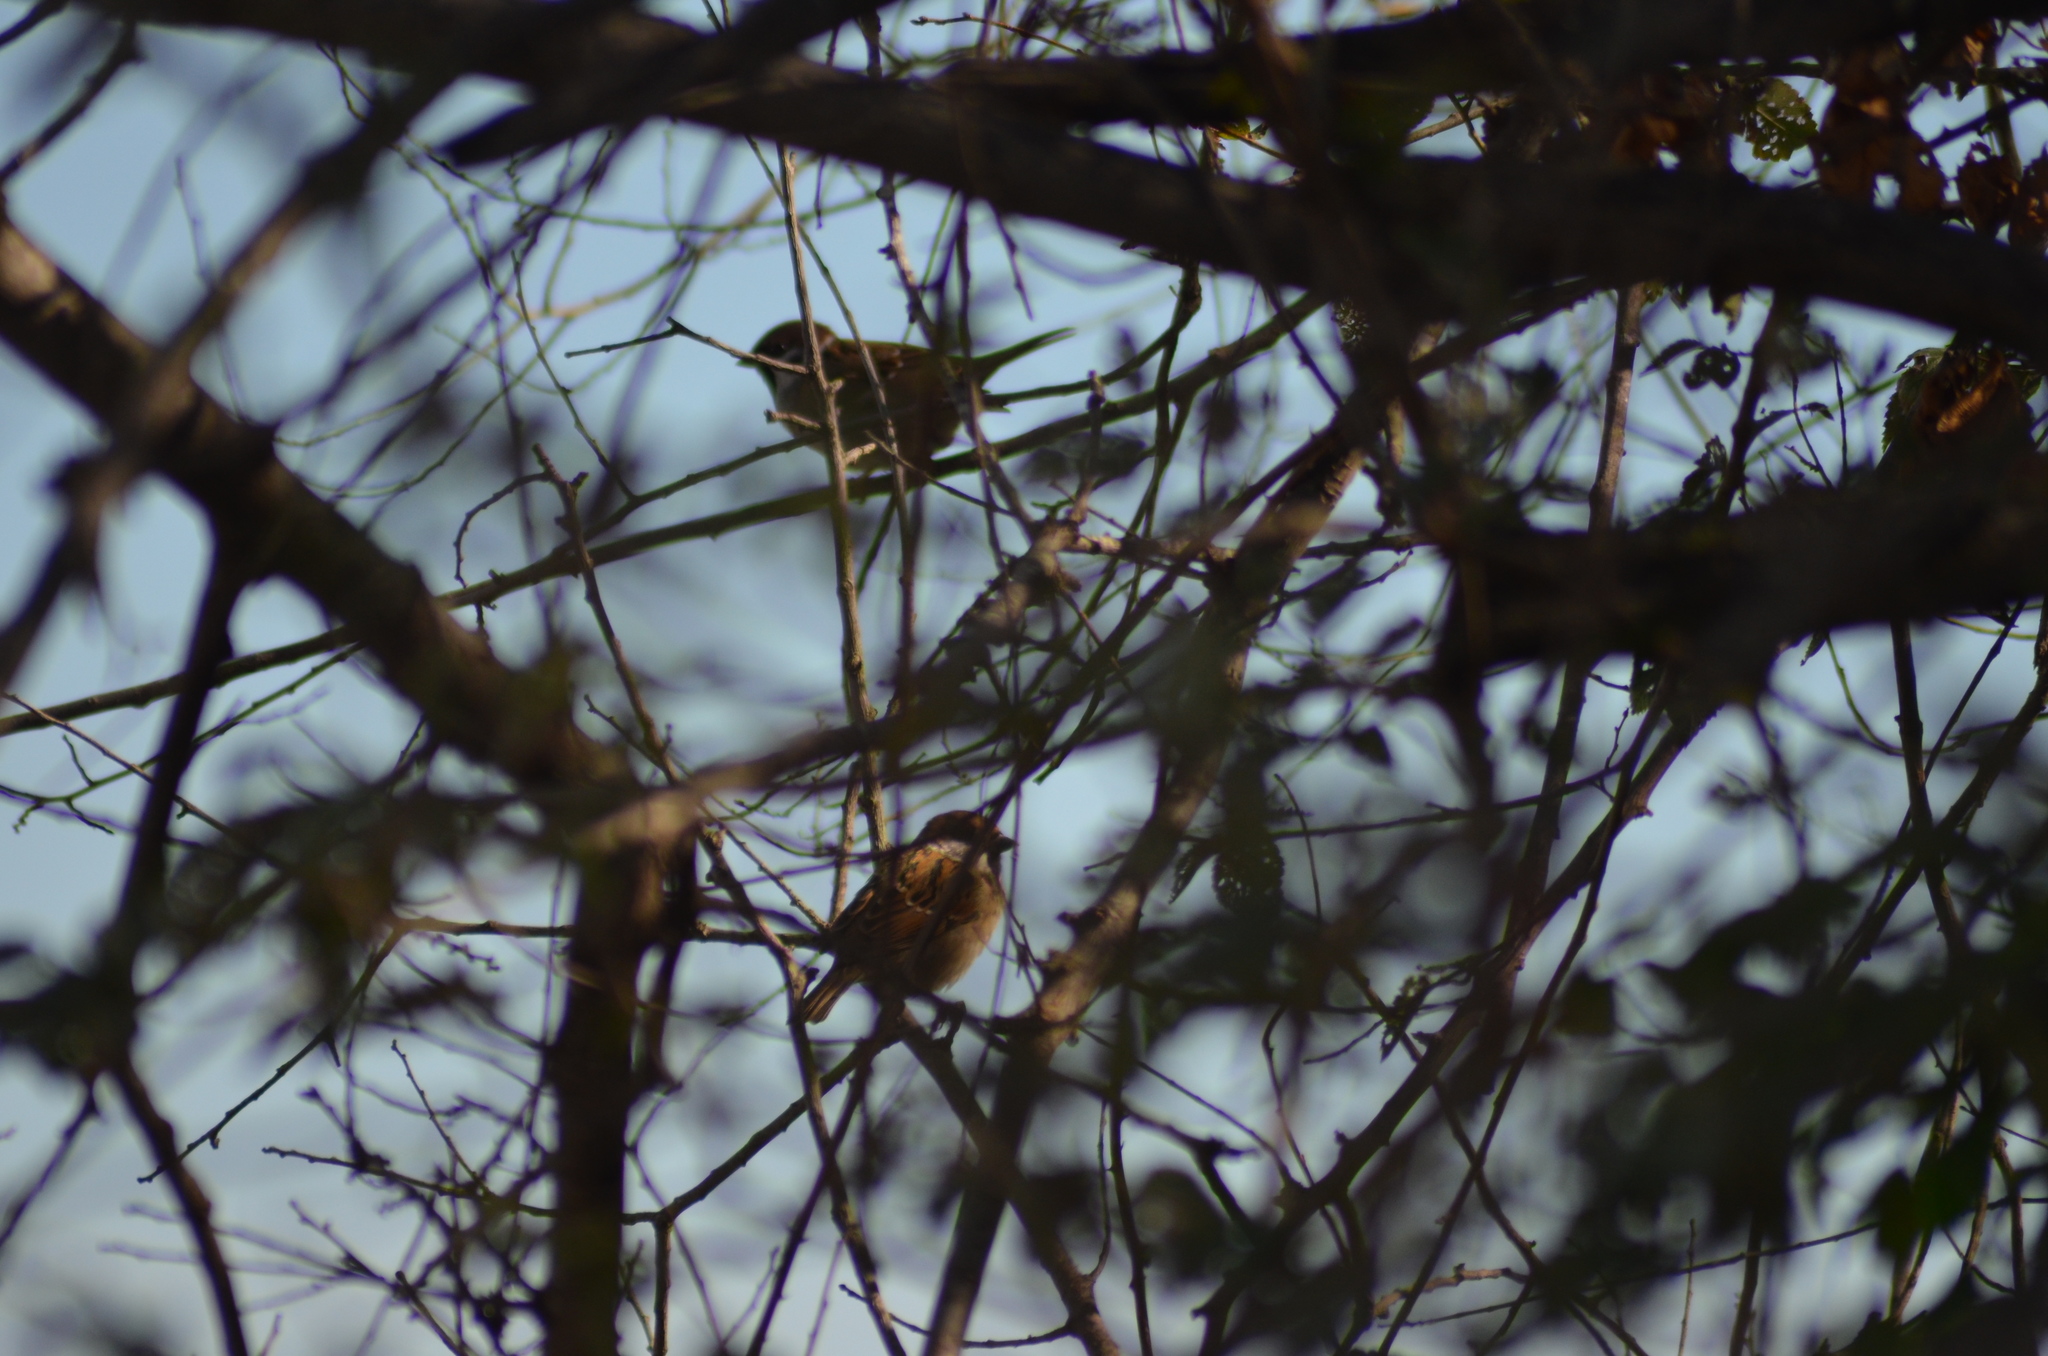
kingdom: Animalia
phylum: Chordata
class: Aves
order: Passeriformes
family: Passeridae
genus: Passer
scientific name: Passer montanus
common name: Eurasian tree sparrow
